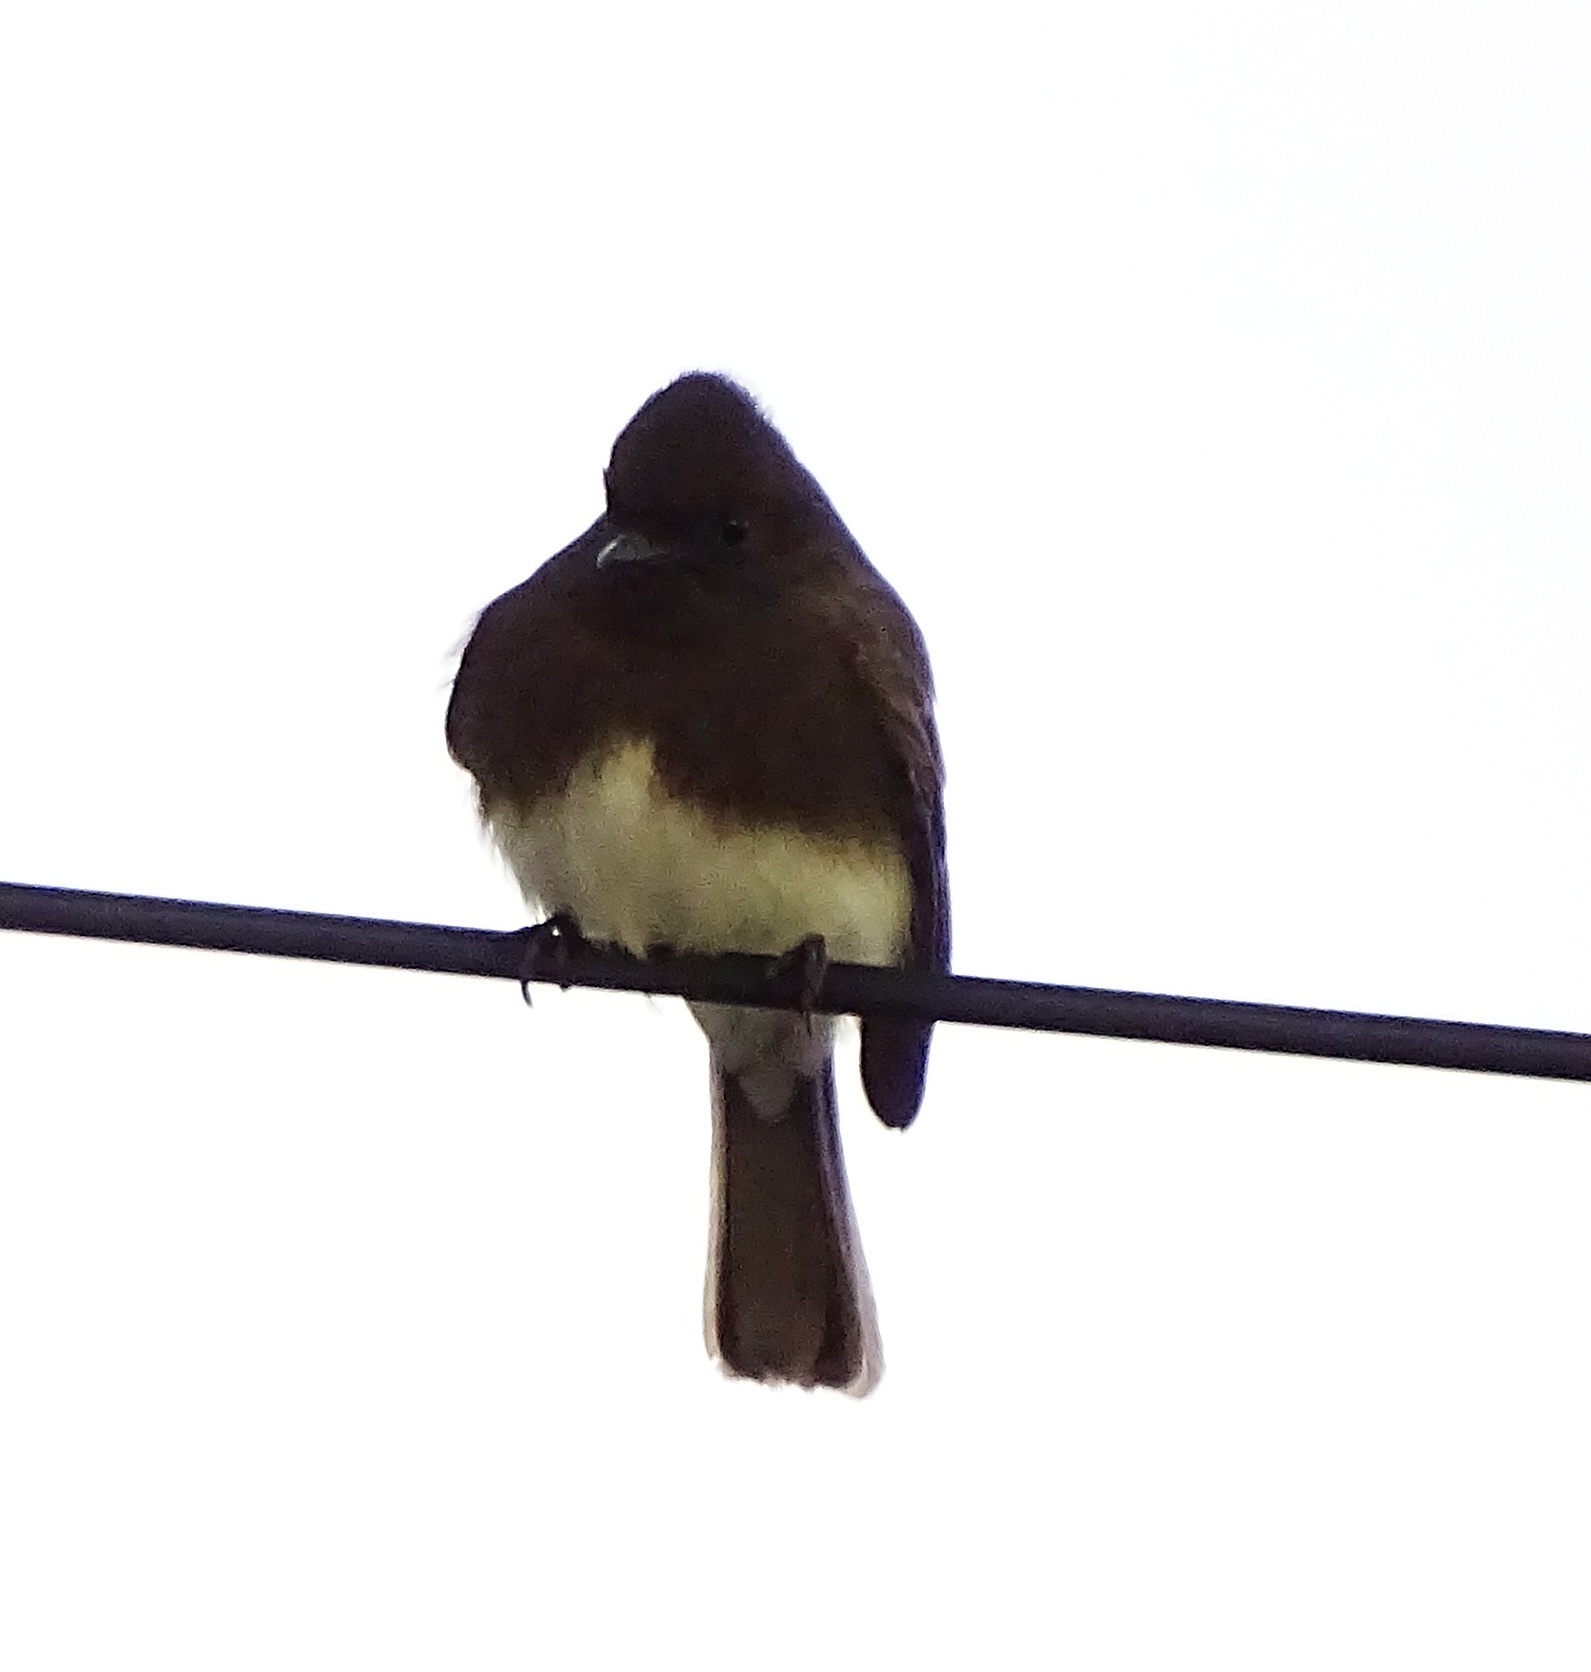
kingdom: Animalia
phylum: Chordata
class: Aves
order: Passeriformes
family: Tyrannidae
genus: Sayornis
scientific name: Sayornis nigricans
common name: Black phoebe
